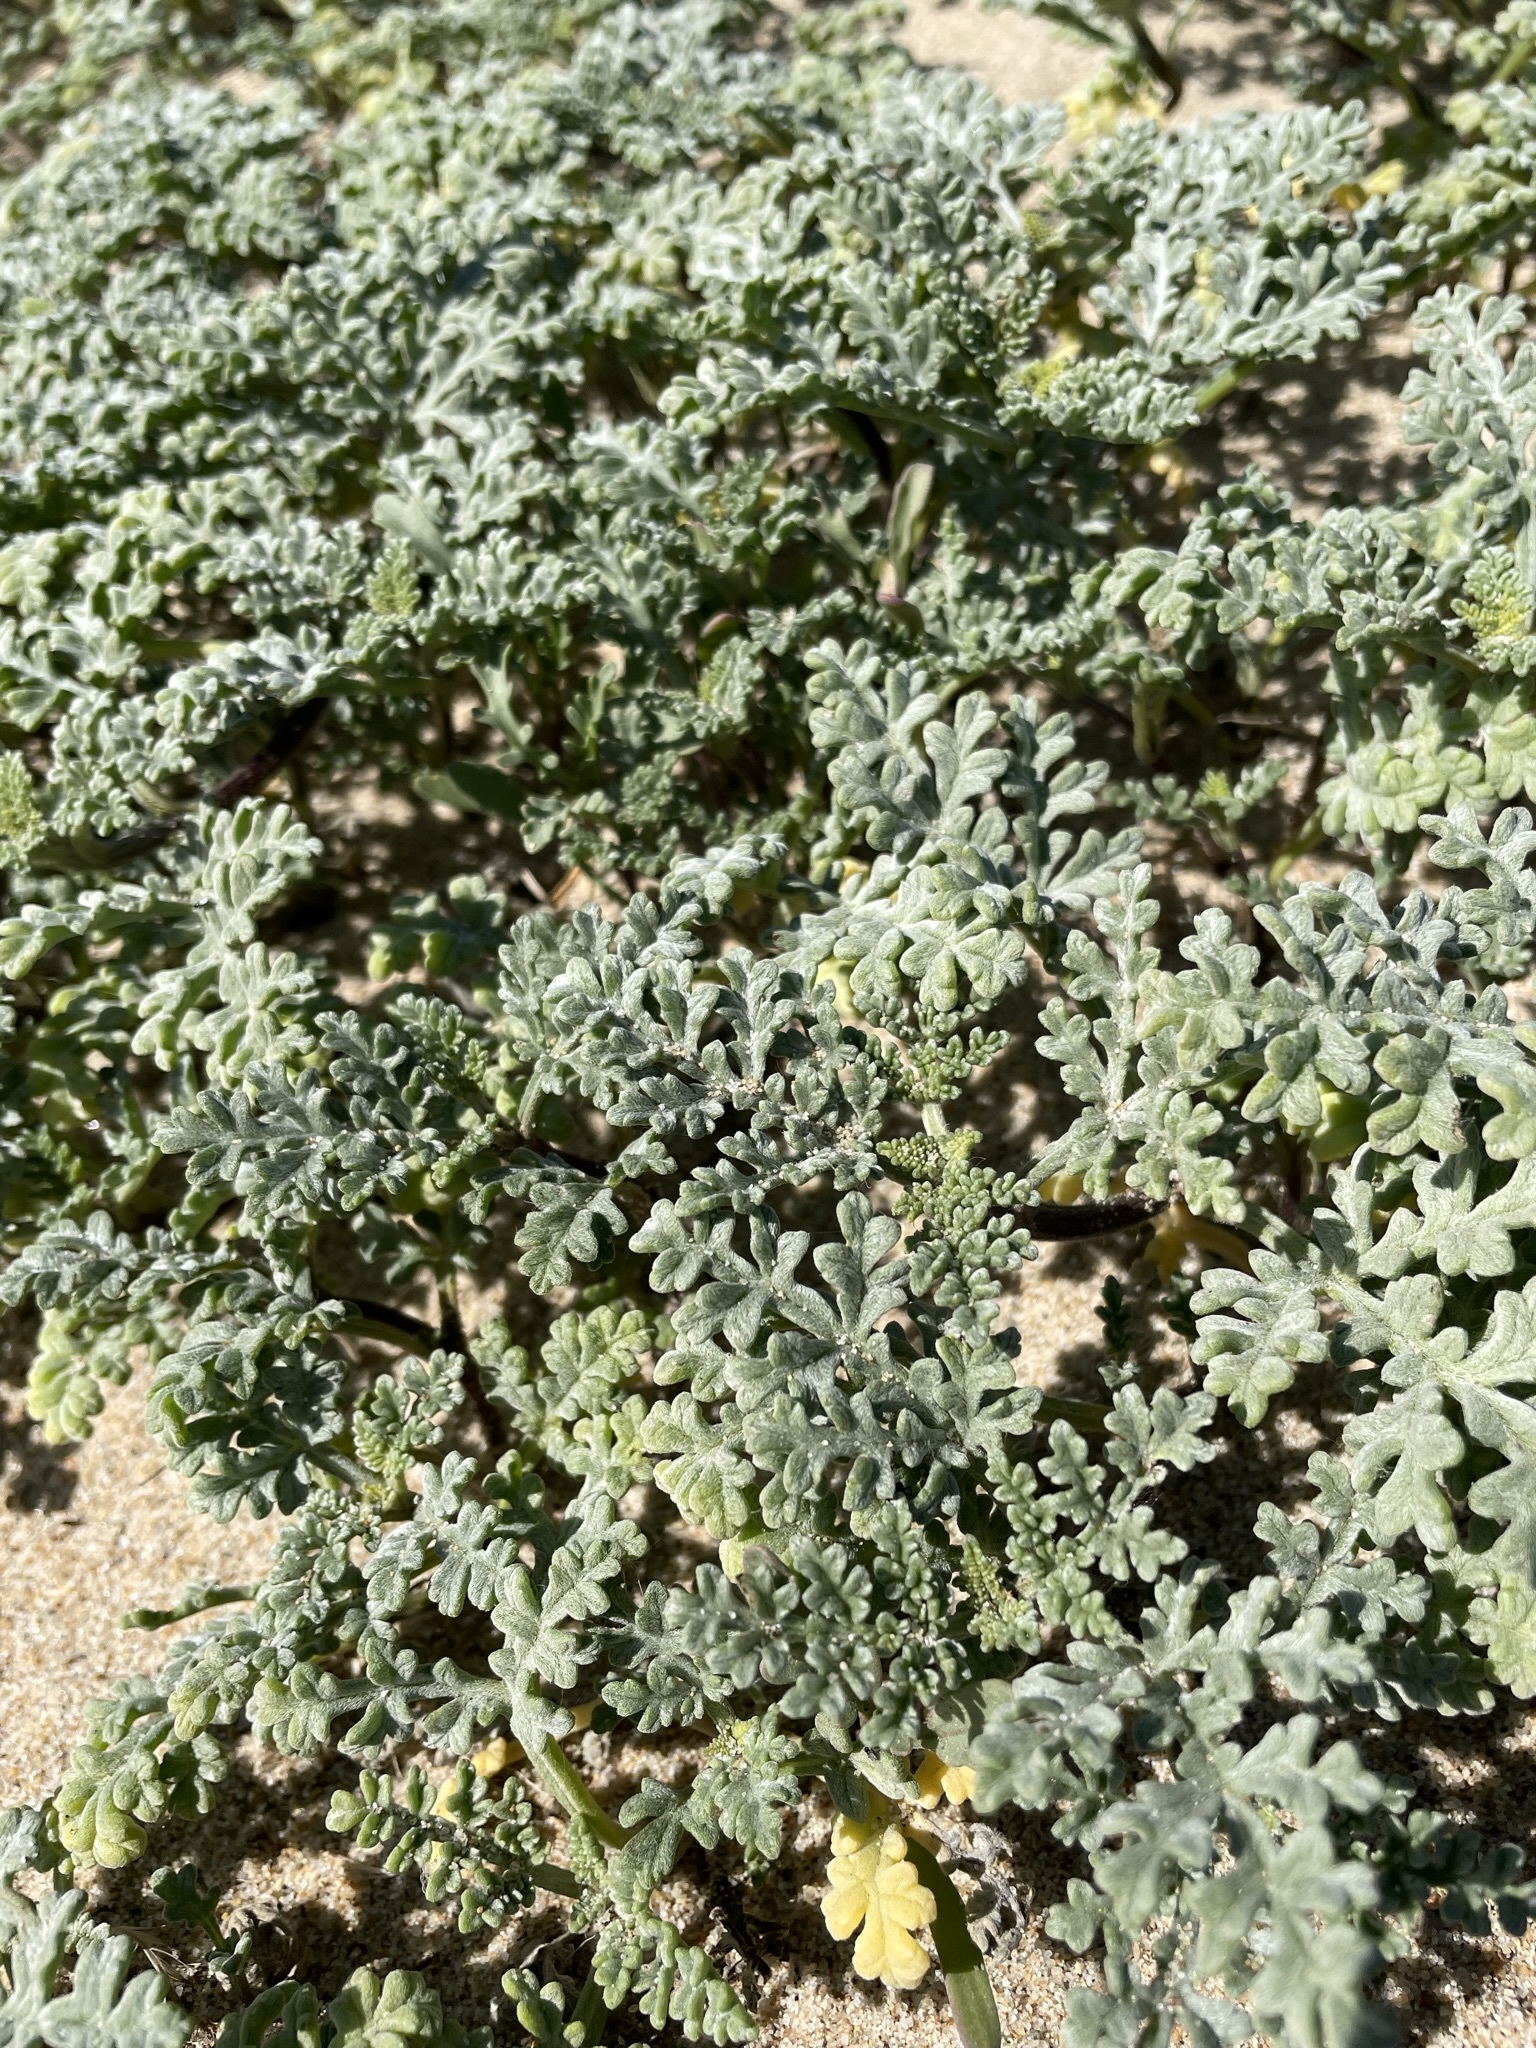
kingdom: Plantae
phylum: Tracheophyta
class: Magnoliopsida
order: Asterales
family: Asteraceae
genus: Ambrosia
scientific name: Ambrosia chamissonis
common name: Beachbur
